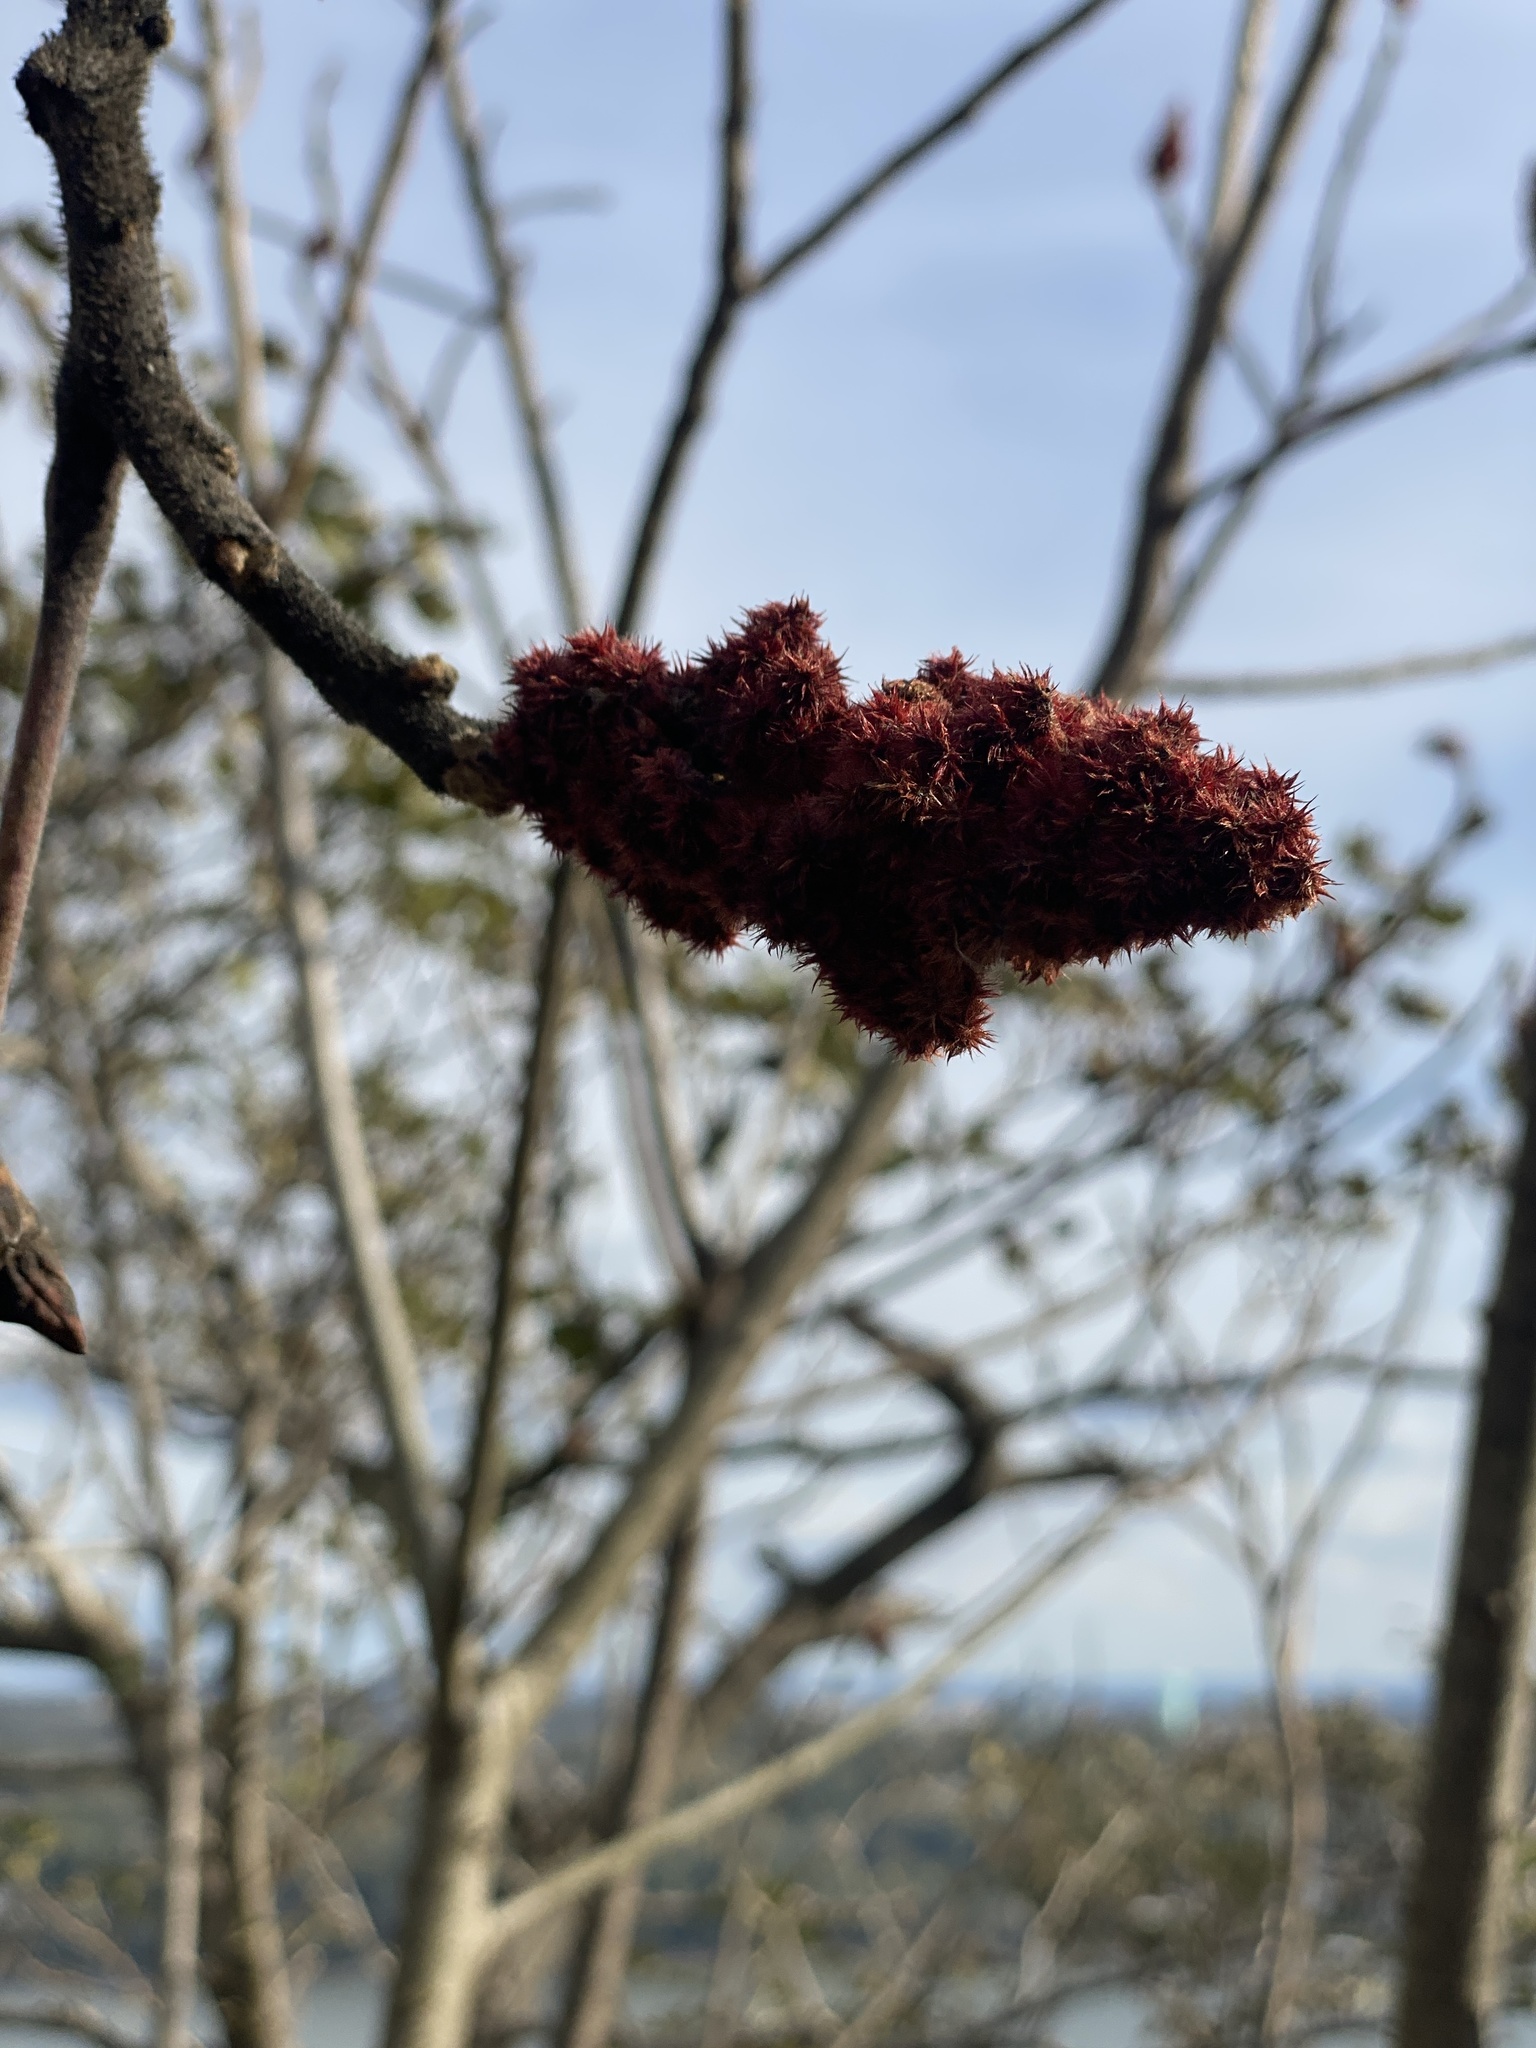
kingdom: Plantae
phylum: Tracheophyta
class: Magnoliopsida
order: Sapindales
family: Anacardiaceae
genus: Rhus
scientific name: Rhus typhina
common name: Staghorn sumac
